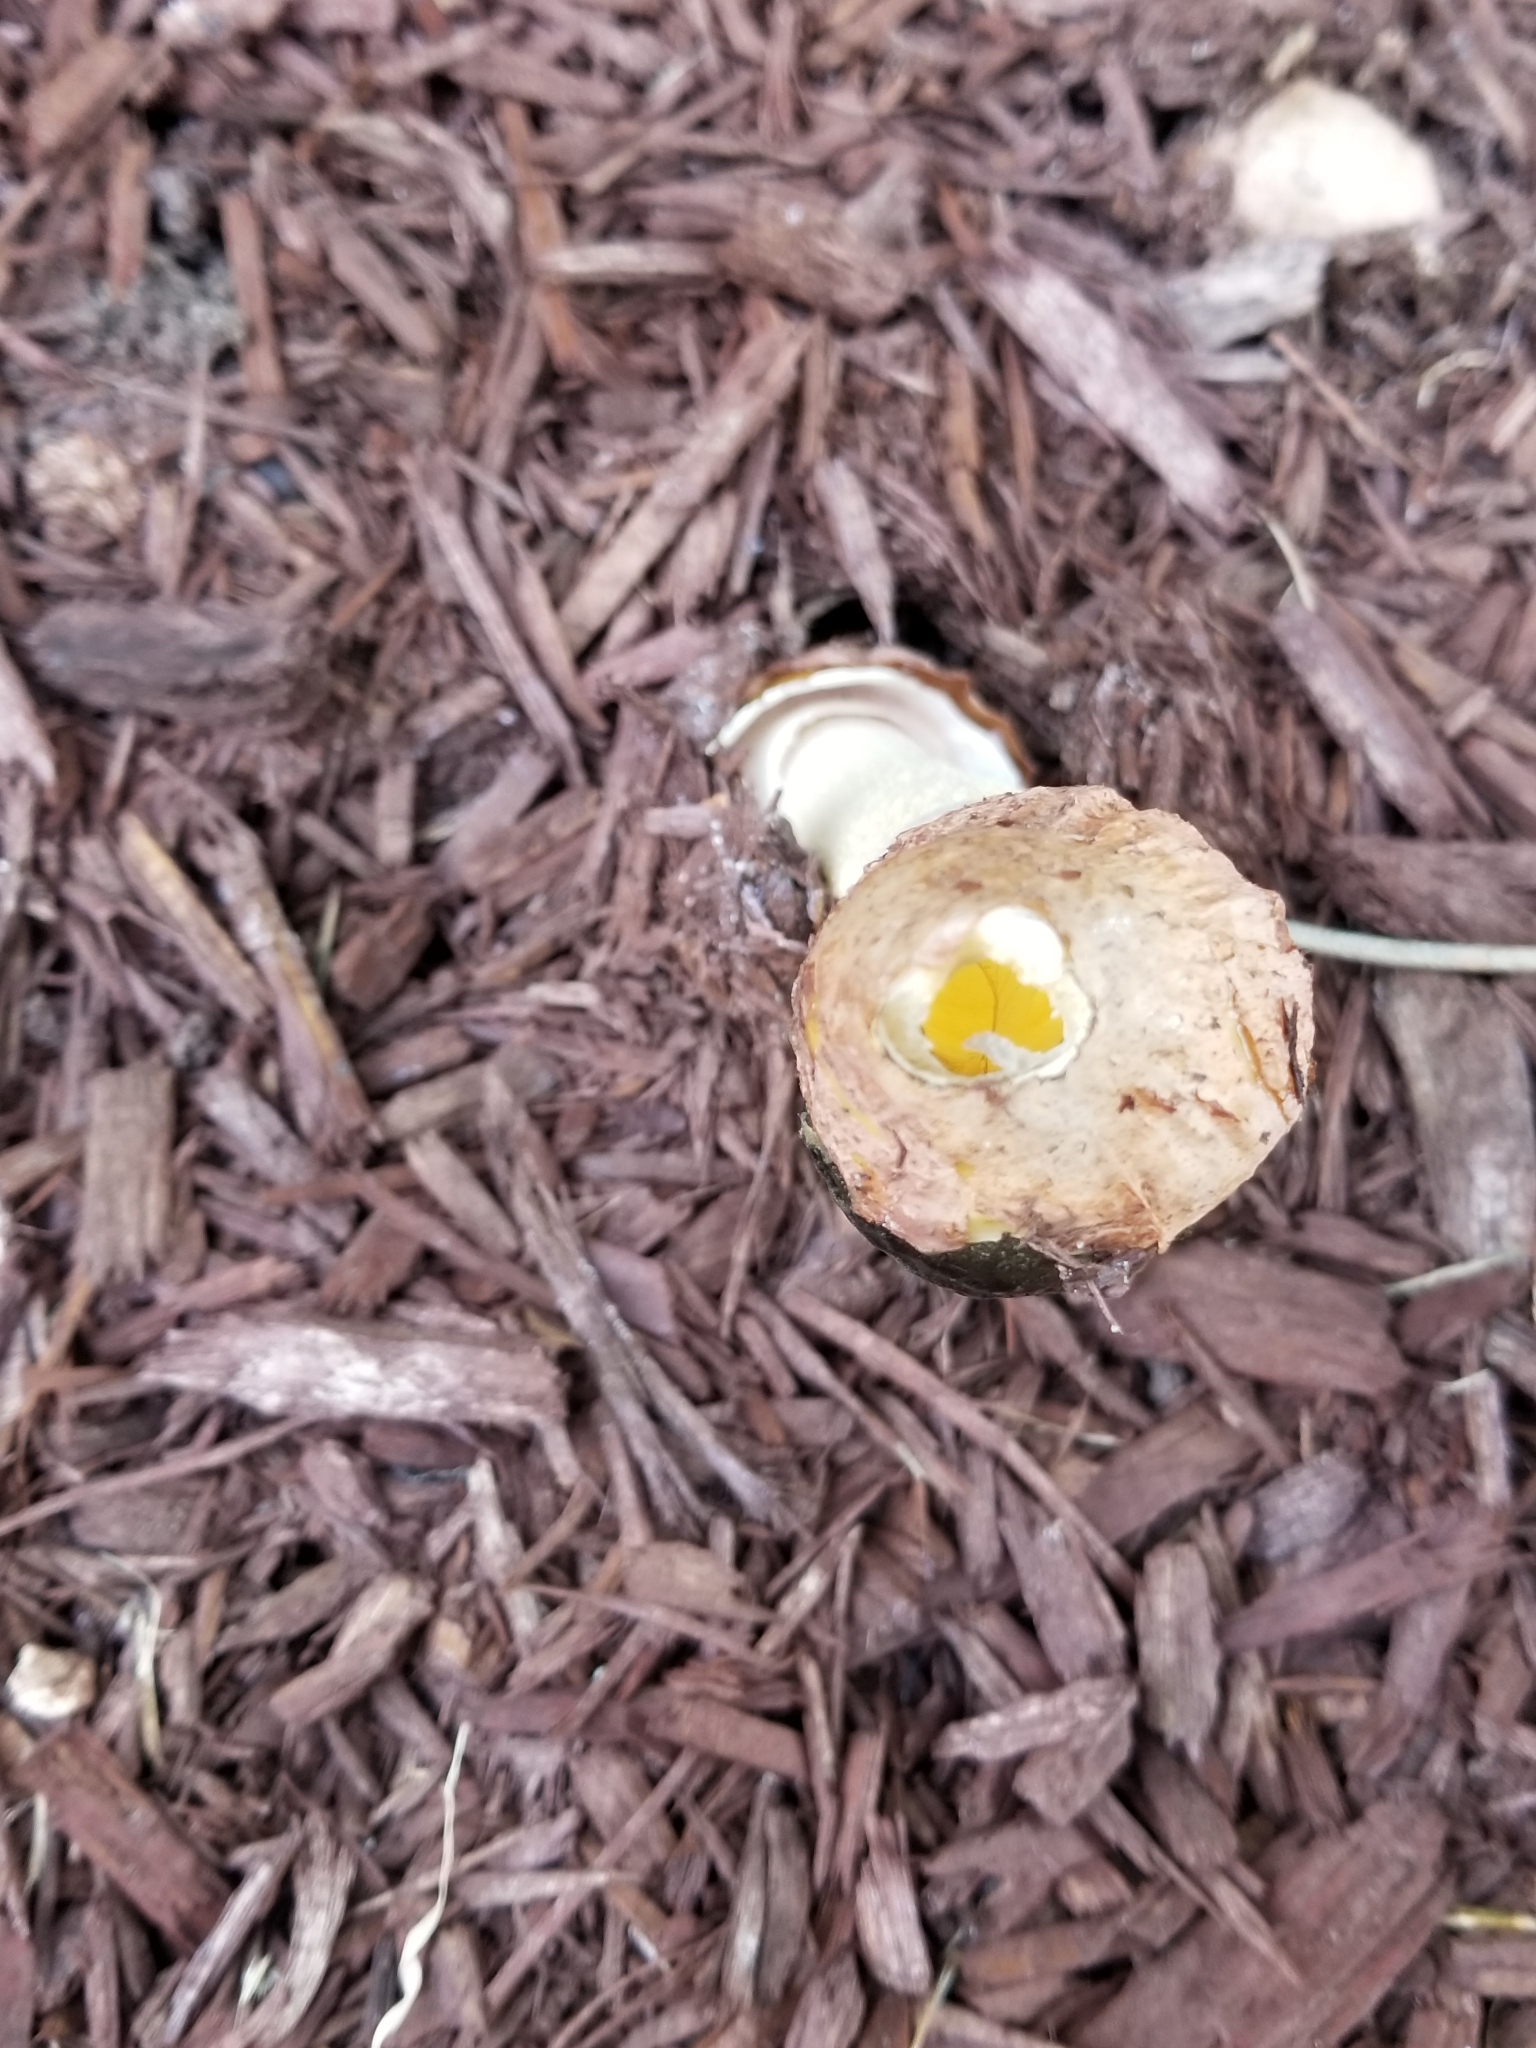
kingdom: Fungi
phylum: Basidiomycota
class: Agaricomycetes
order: Phallales
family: Phallaceae
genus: Phallus
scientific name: Phallus ravenelii
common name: Ravenel's stinkhorn
